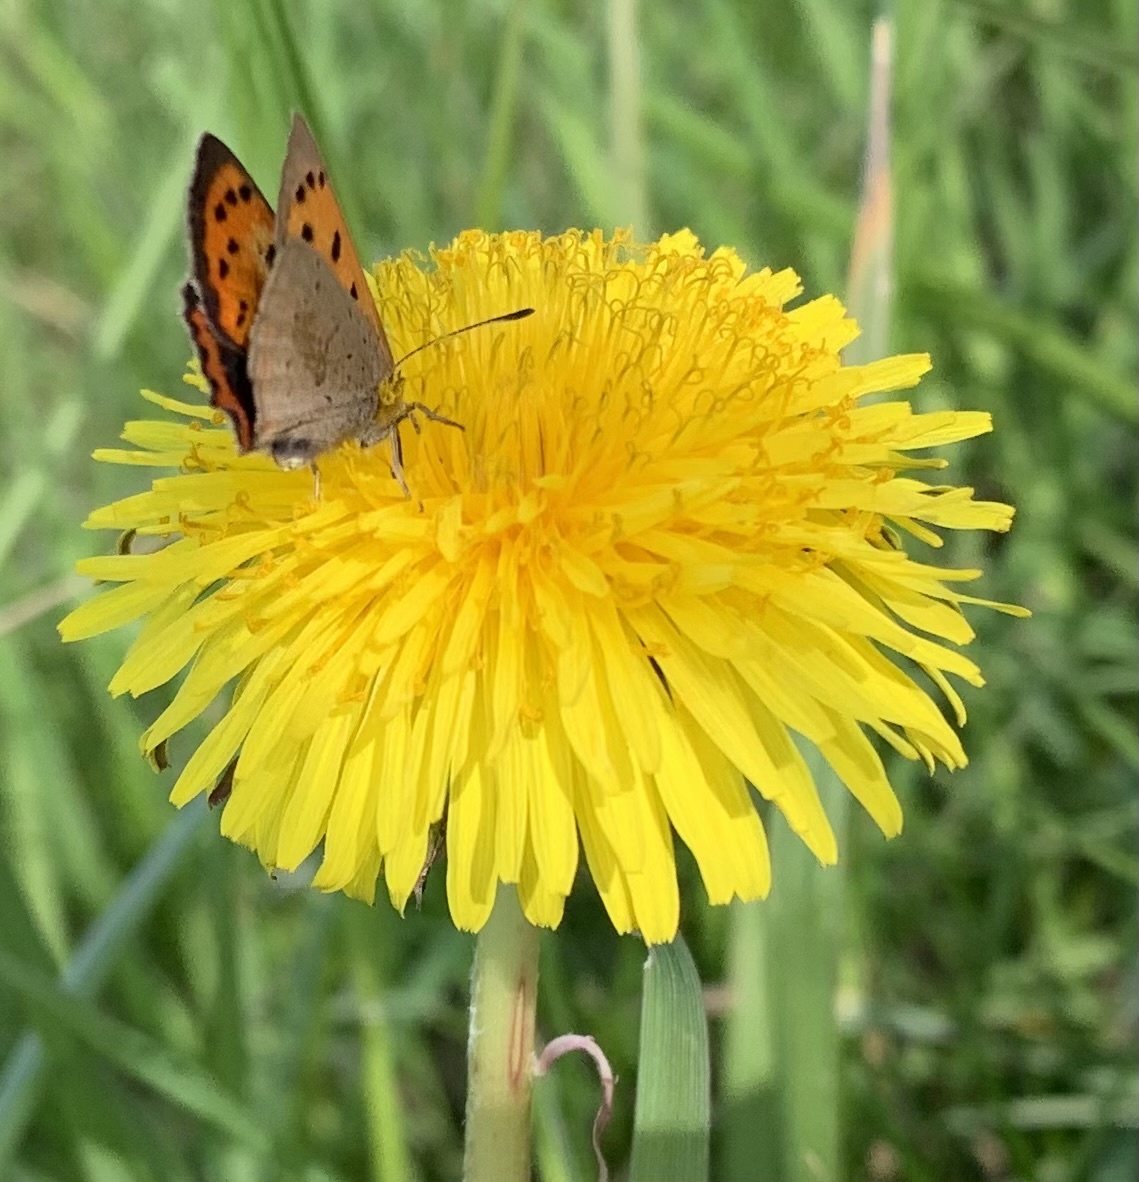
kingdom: Animalia
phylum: Arthropoda
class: Insecta
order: Lepidoptera
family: Lycaenidae
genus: Lycaena
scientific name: Lycaena phlaeas
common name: Small copper
